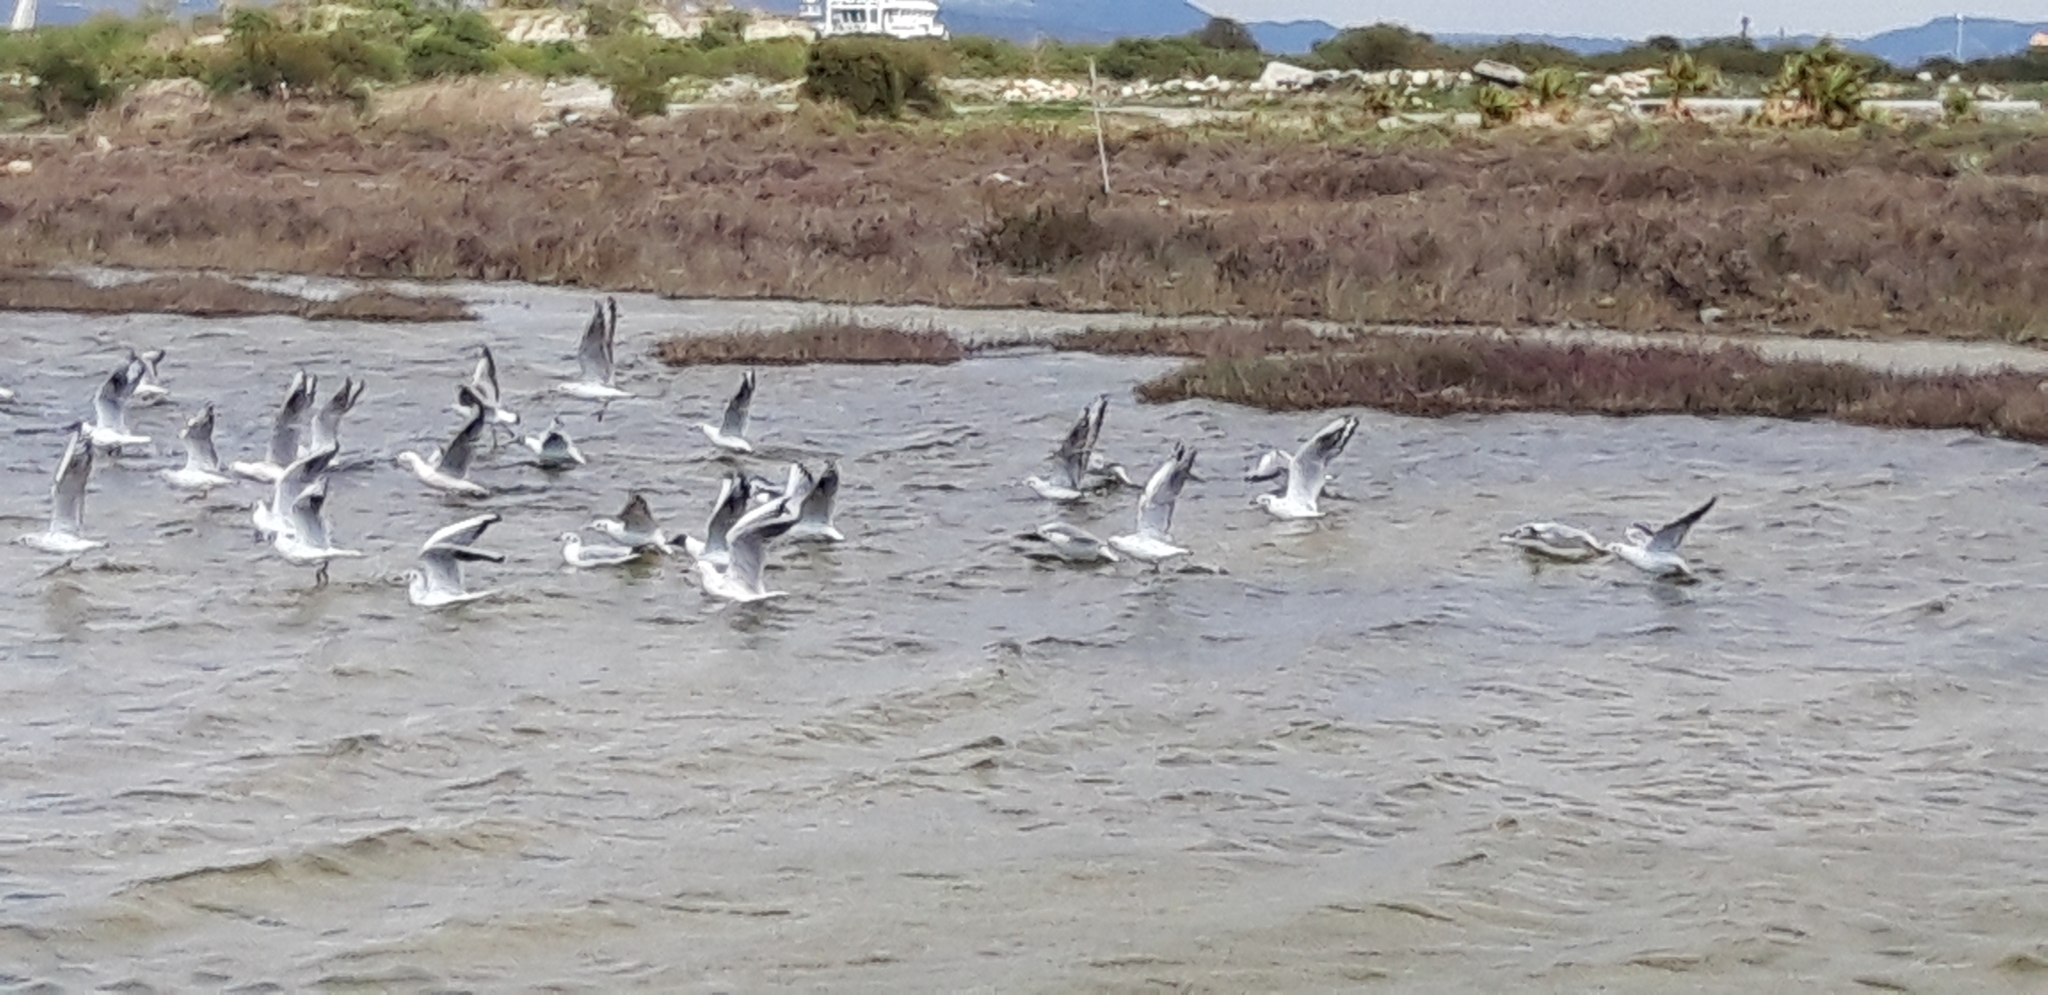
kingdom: Animalia
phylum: Chordata
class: Aves
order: Charadriiformes
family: Laridae
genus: Chroicocephalus
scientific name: Chroicocephalus genei
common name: Slender-billed gull
